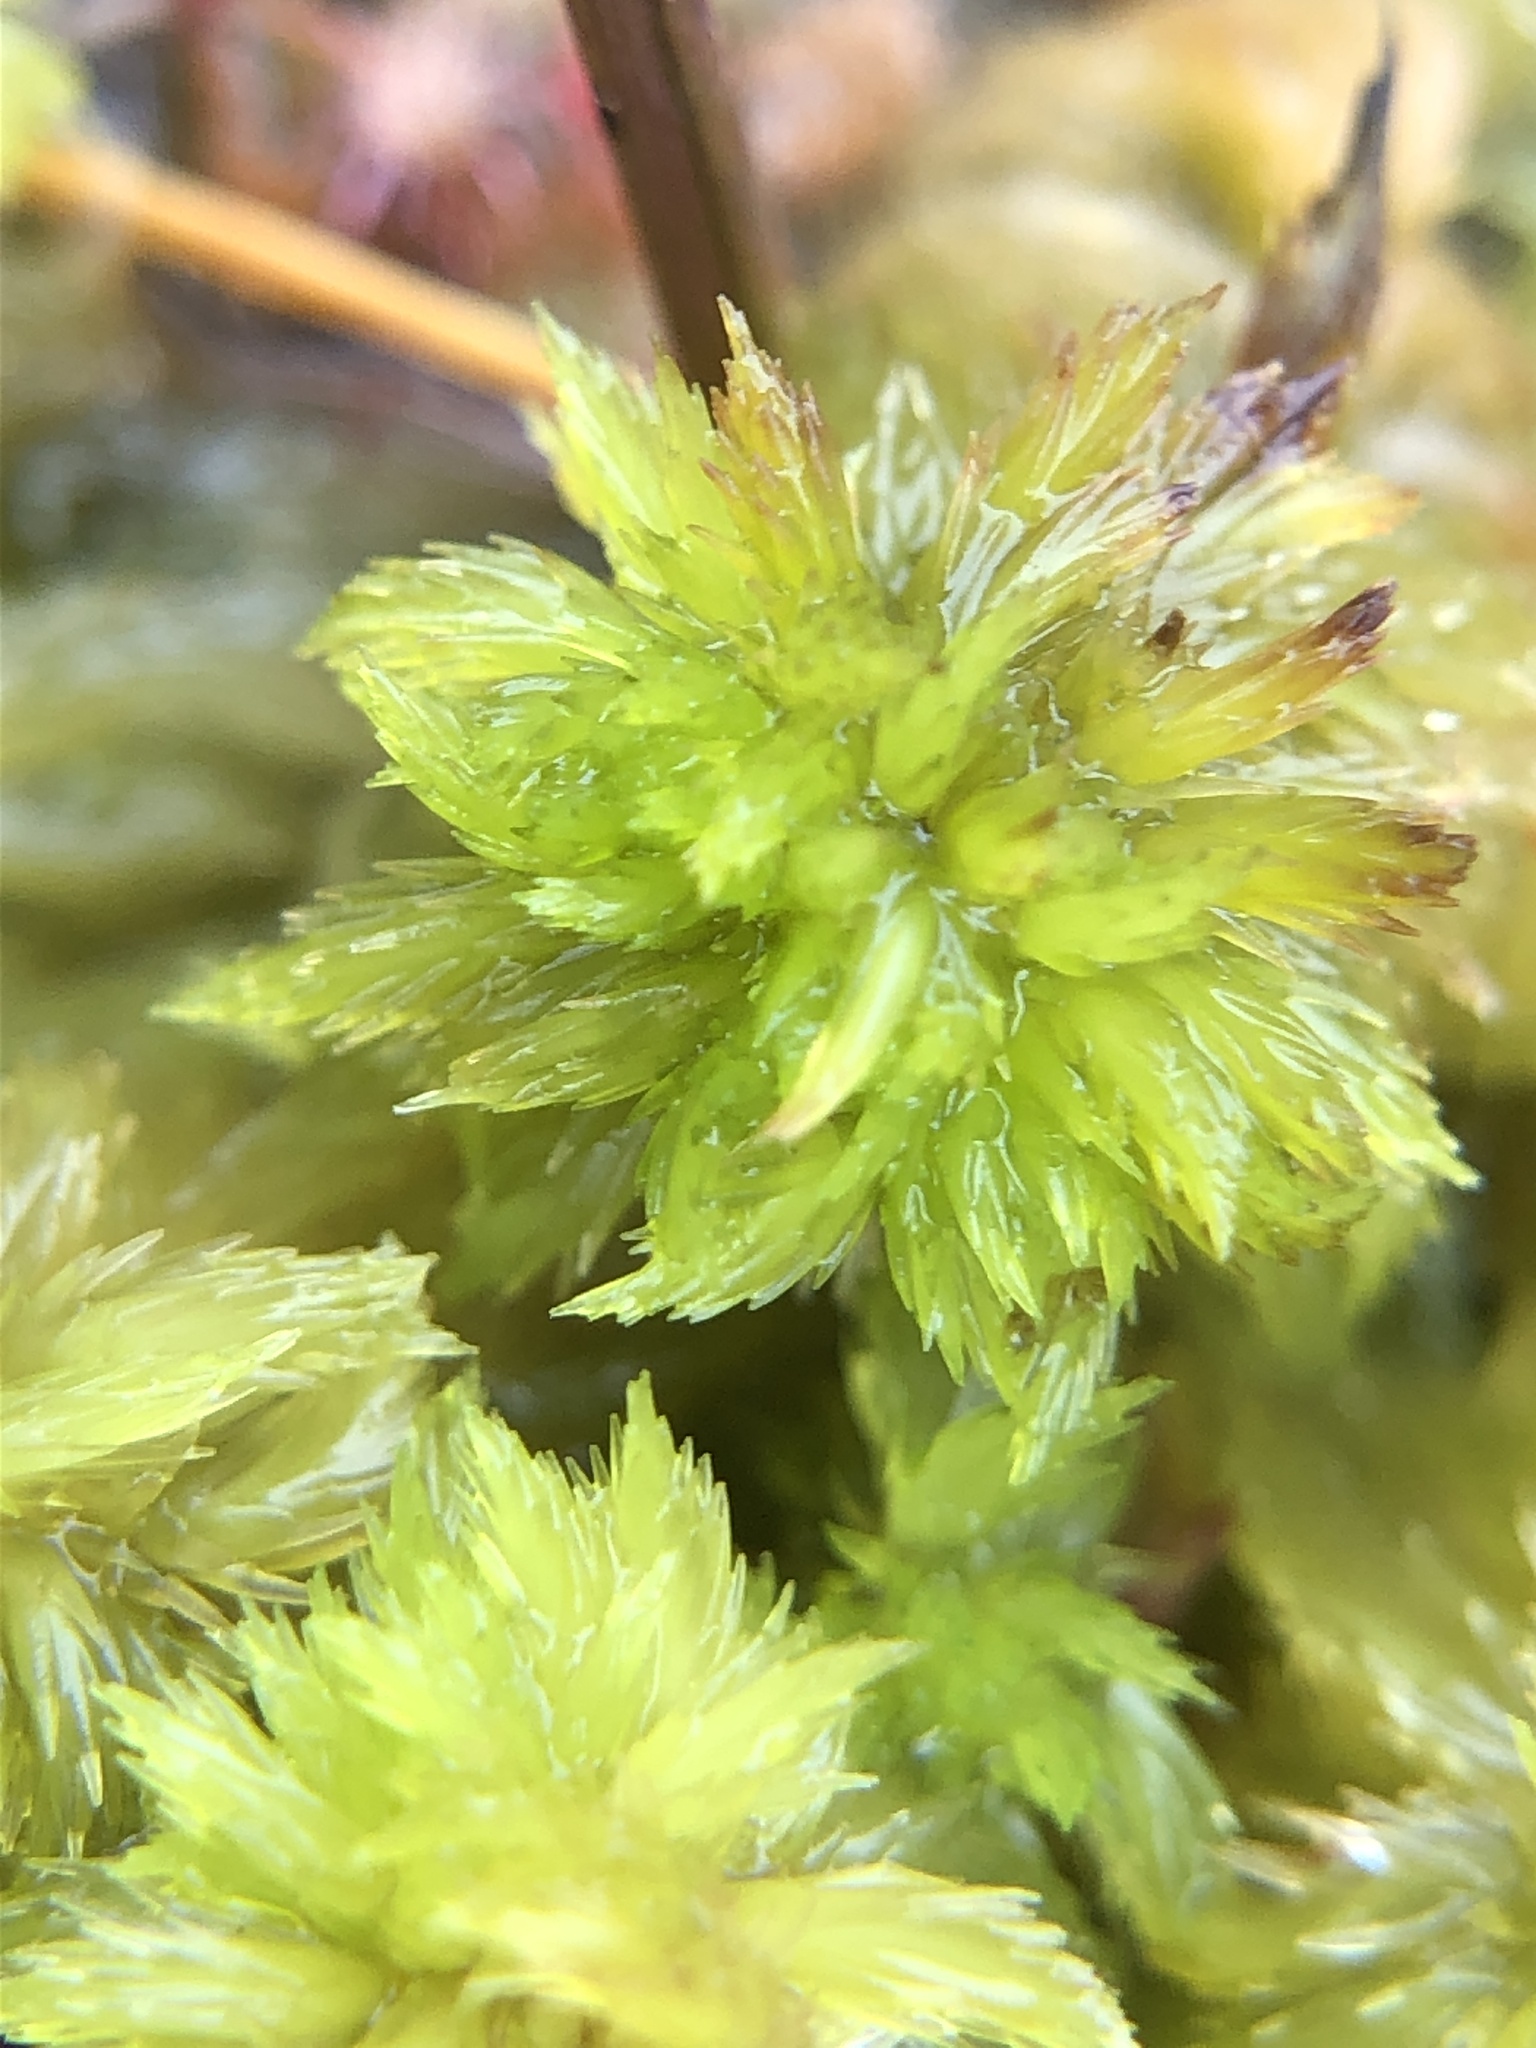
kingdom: Plantae
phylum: Bryophyta
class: Sphagnopsida
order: Sphagnales
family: Sphagnaceae
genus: Sphagnum
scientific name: Sphagnum cuspidatum
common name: Feathery peat moss
